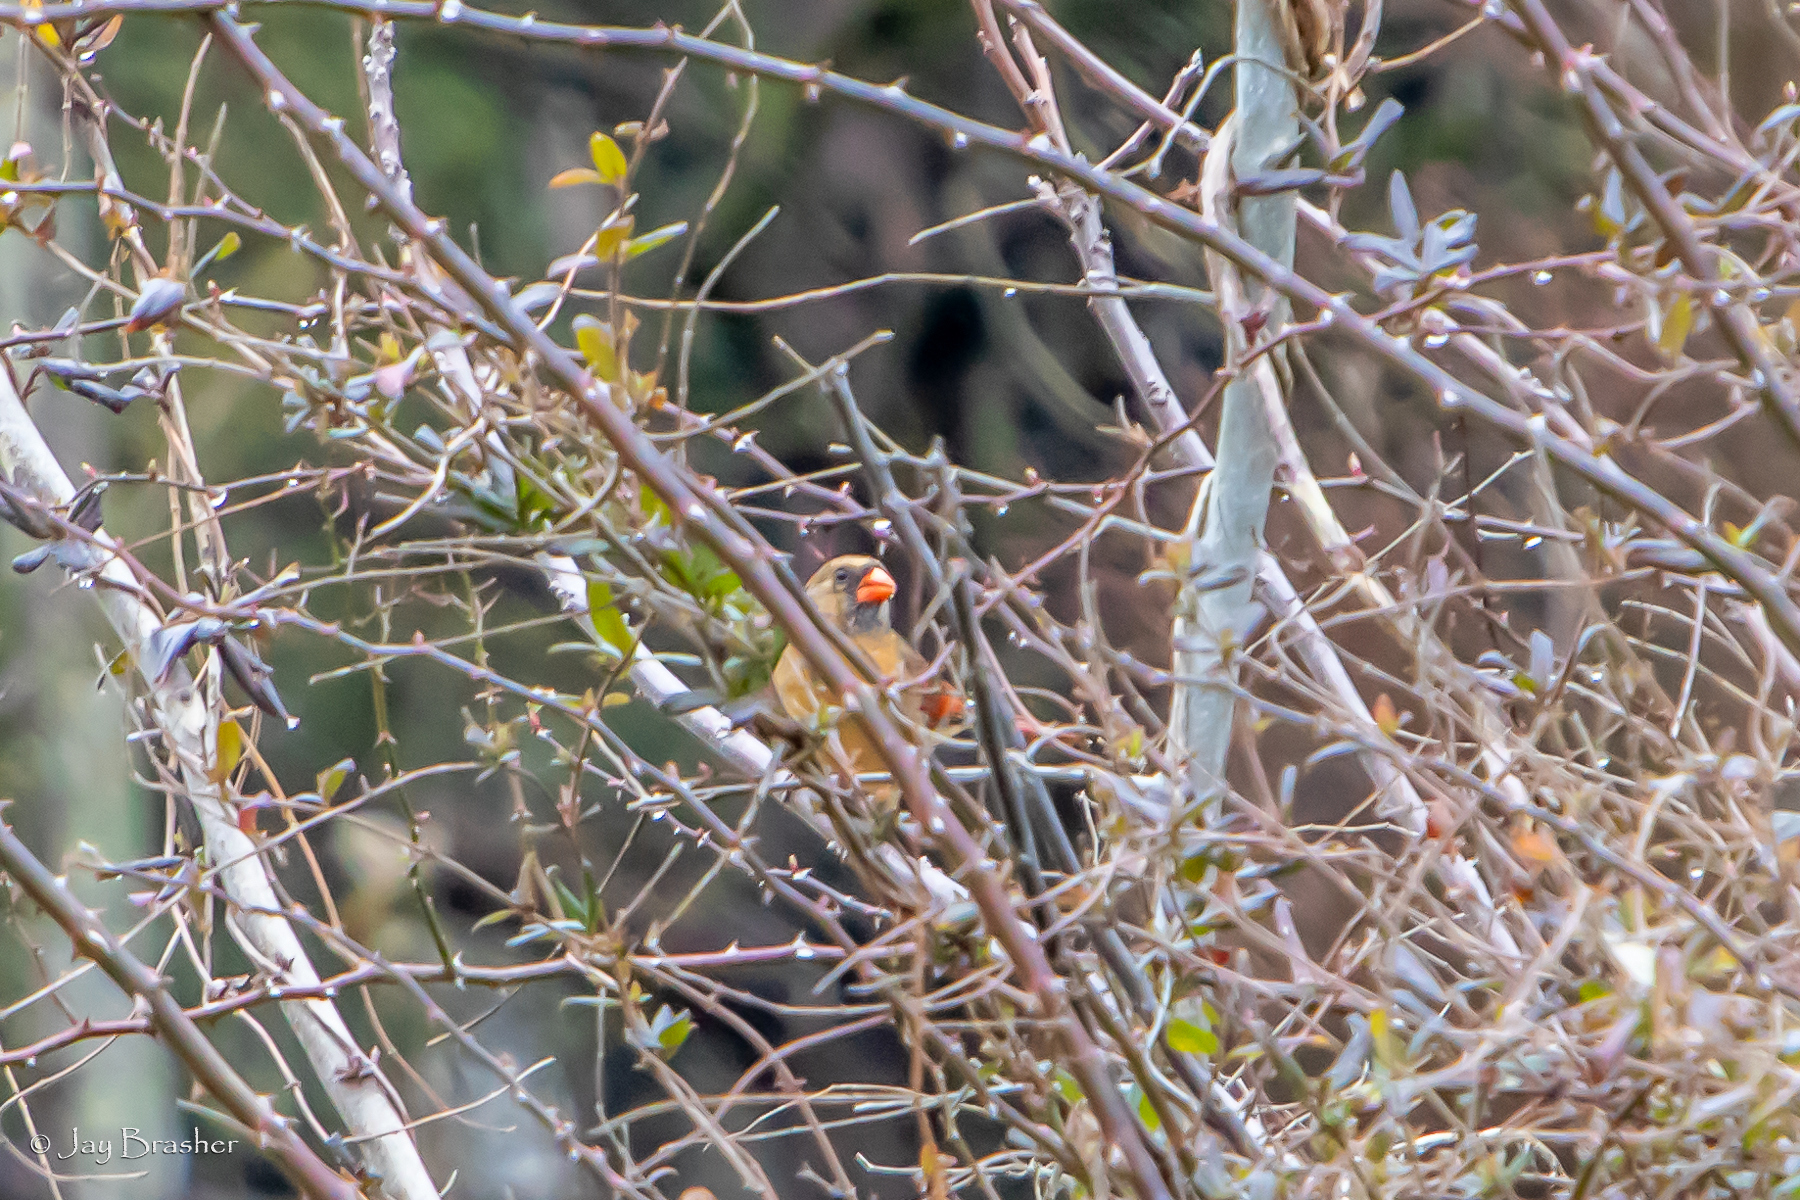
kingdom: Animalia
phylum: Chordata
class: Aves
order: Passeriformes
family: Cardinalidae
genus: Cardinalis
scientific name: Cardinalis cardinalis
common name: Northern cardinal
